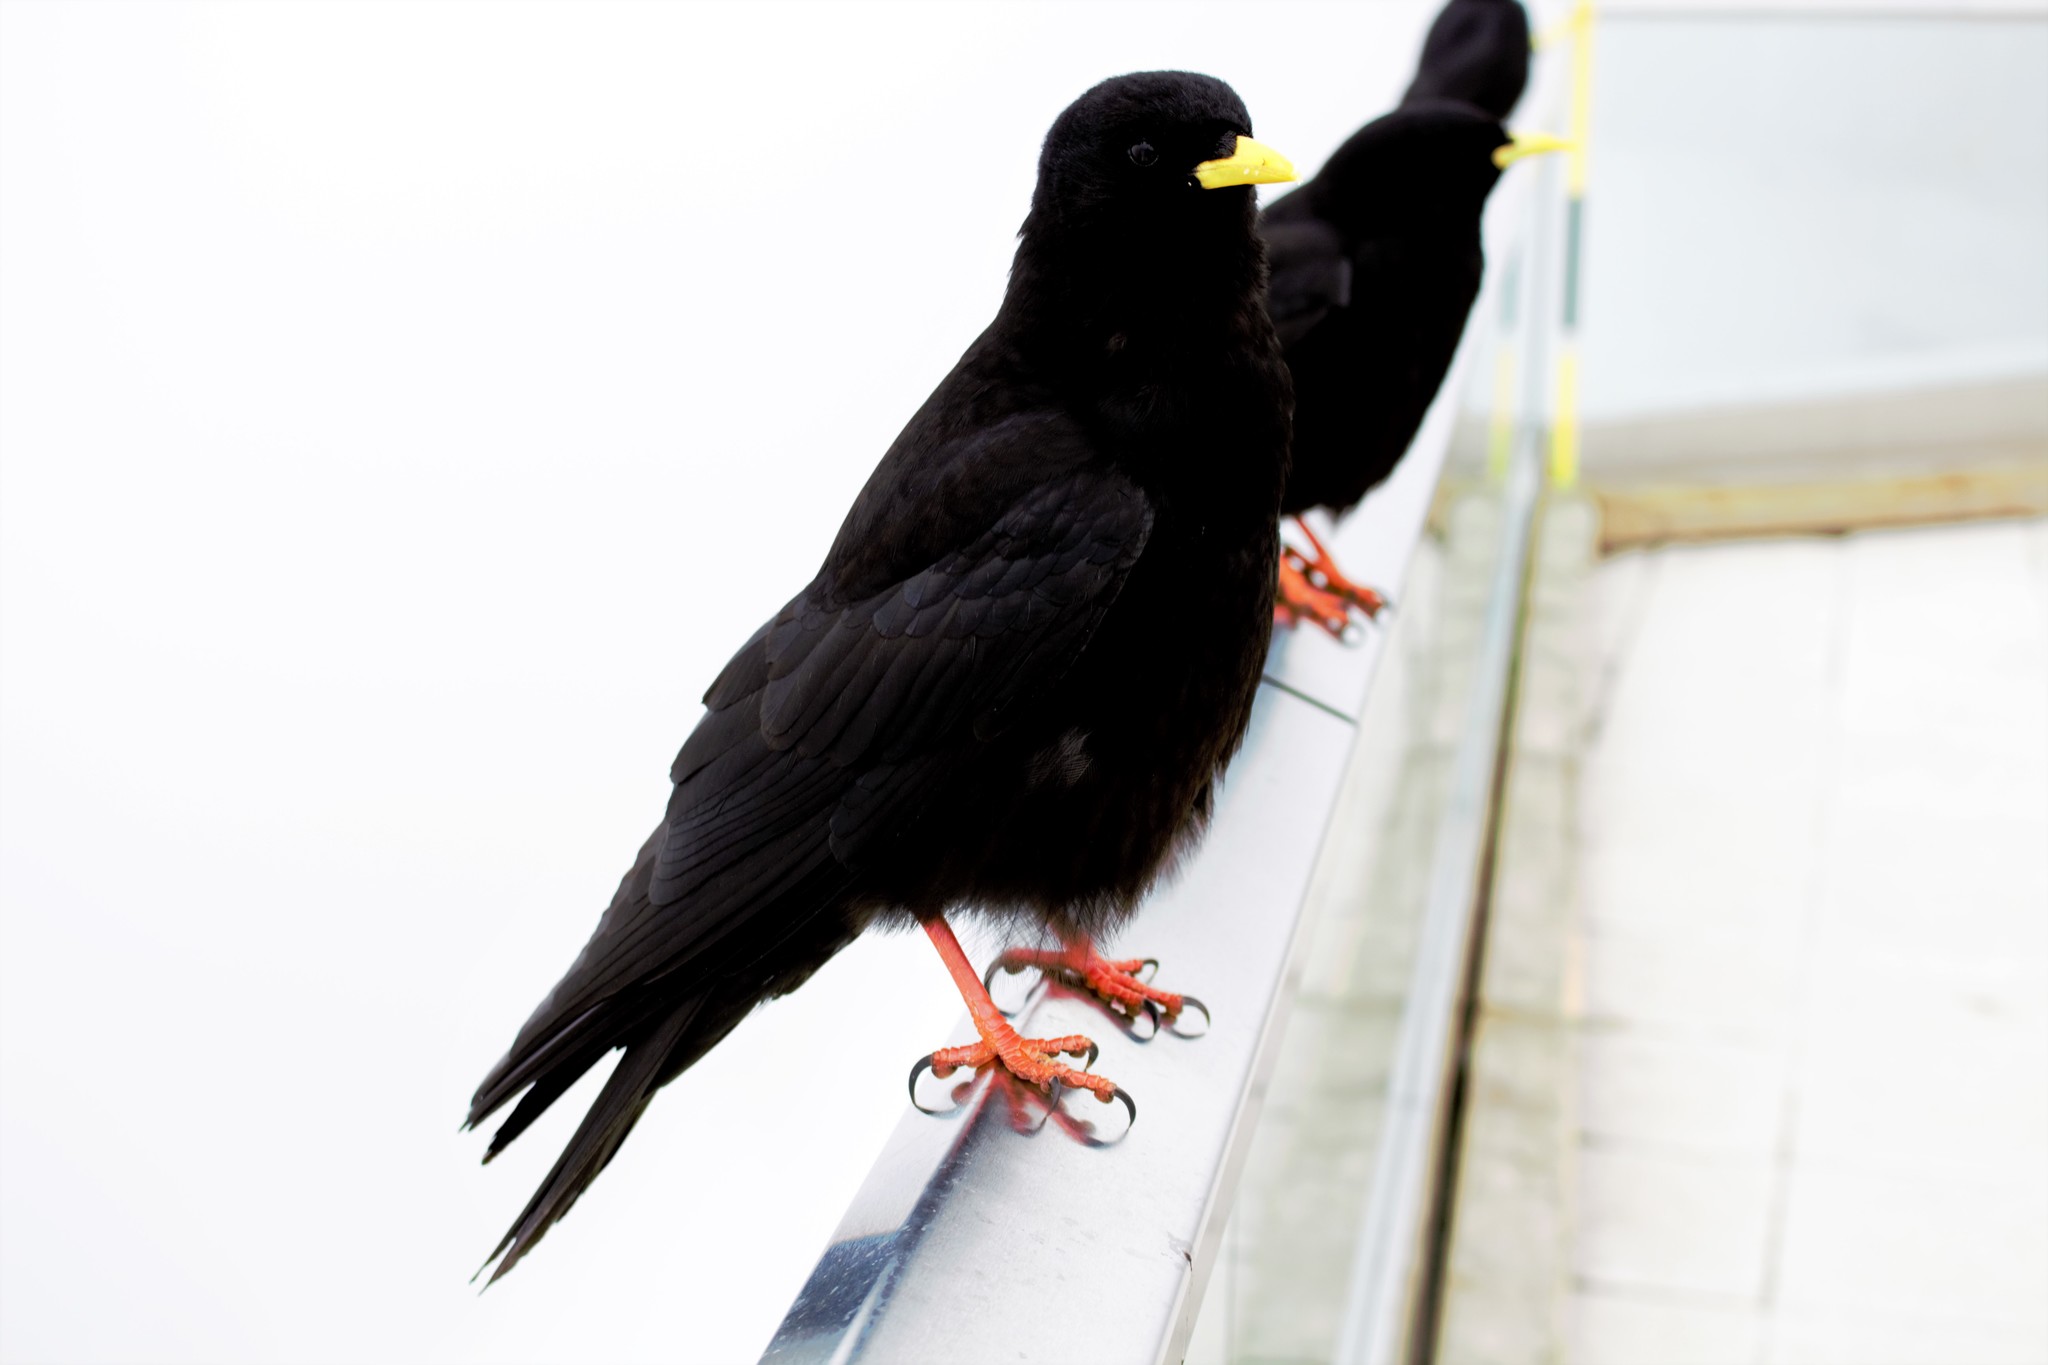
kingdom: Animalia
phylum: Chordata
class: Aves
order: Passeriformes
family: Corvidae
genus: Pyrrhocorax
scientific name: Pyrrhocorax graculus
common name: Alpine chough
